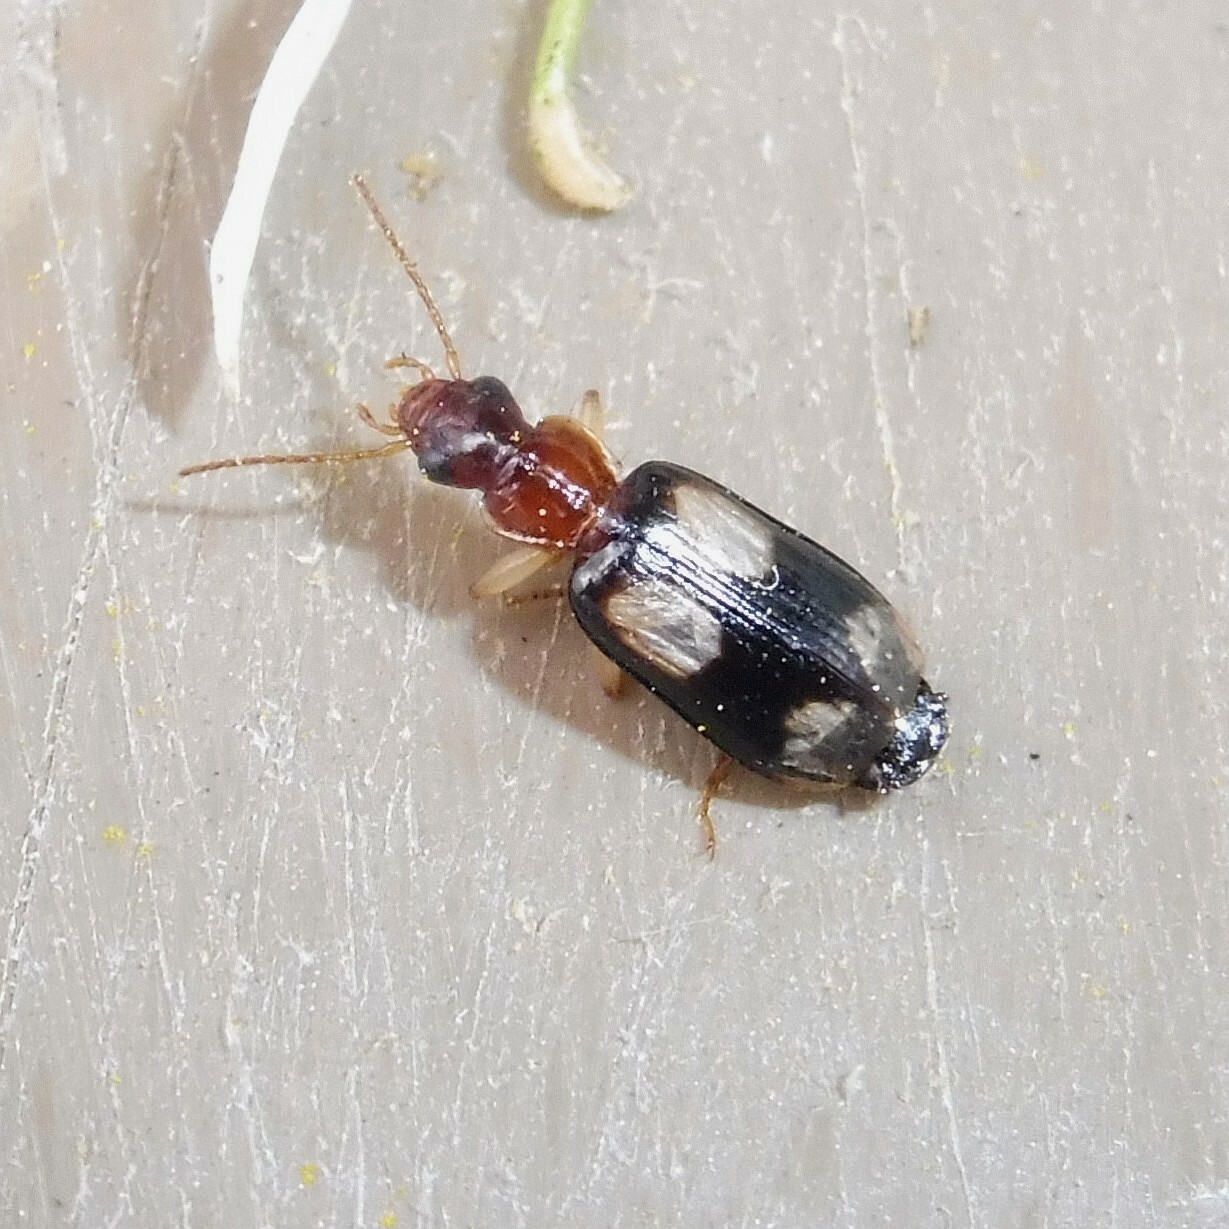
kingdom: Animalia
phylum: Arthropoda
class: Insecta
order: Coleoptera
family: Carabidae
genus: Dromius
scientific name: Dromius quadrimaculatus
